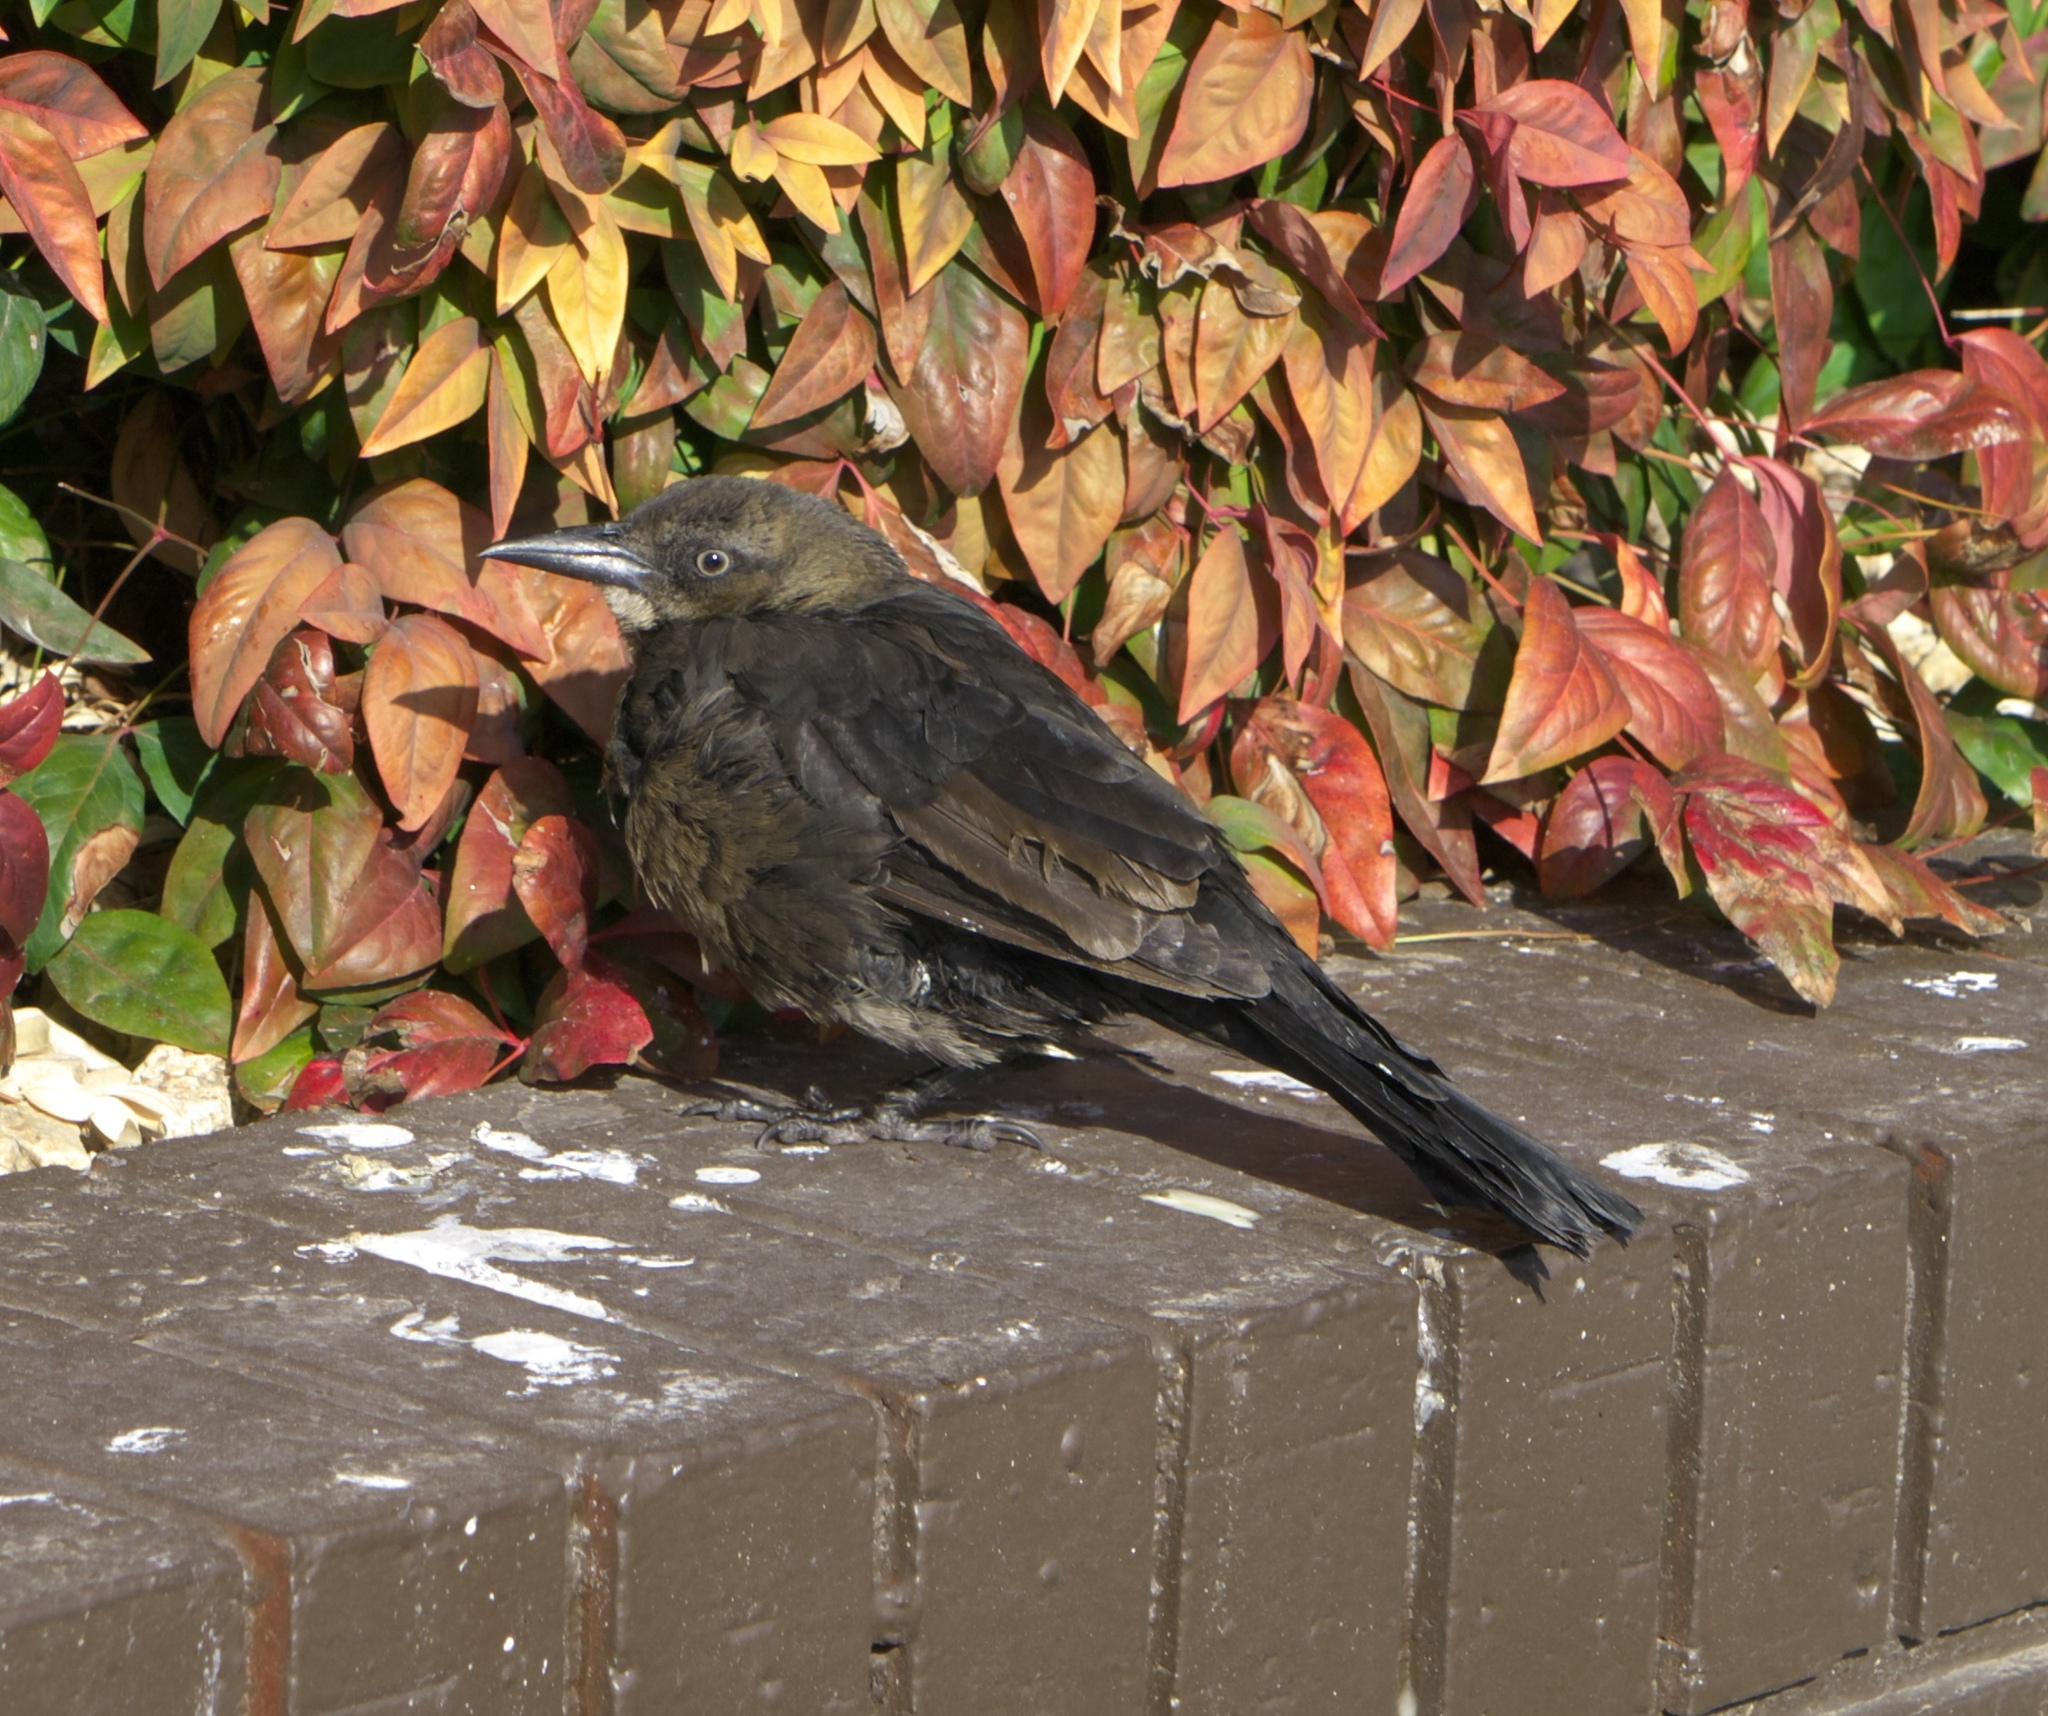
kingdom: Animalia
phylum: Chordata
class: Aves
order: Passeriformes
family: Icteridae
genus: Quiscalus
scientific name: Quiscalus mexicanus
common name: Great-tailed grackle
